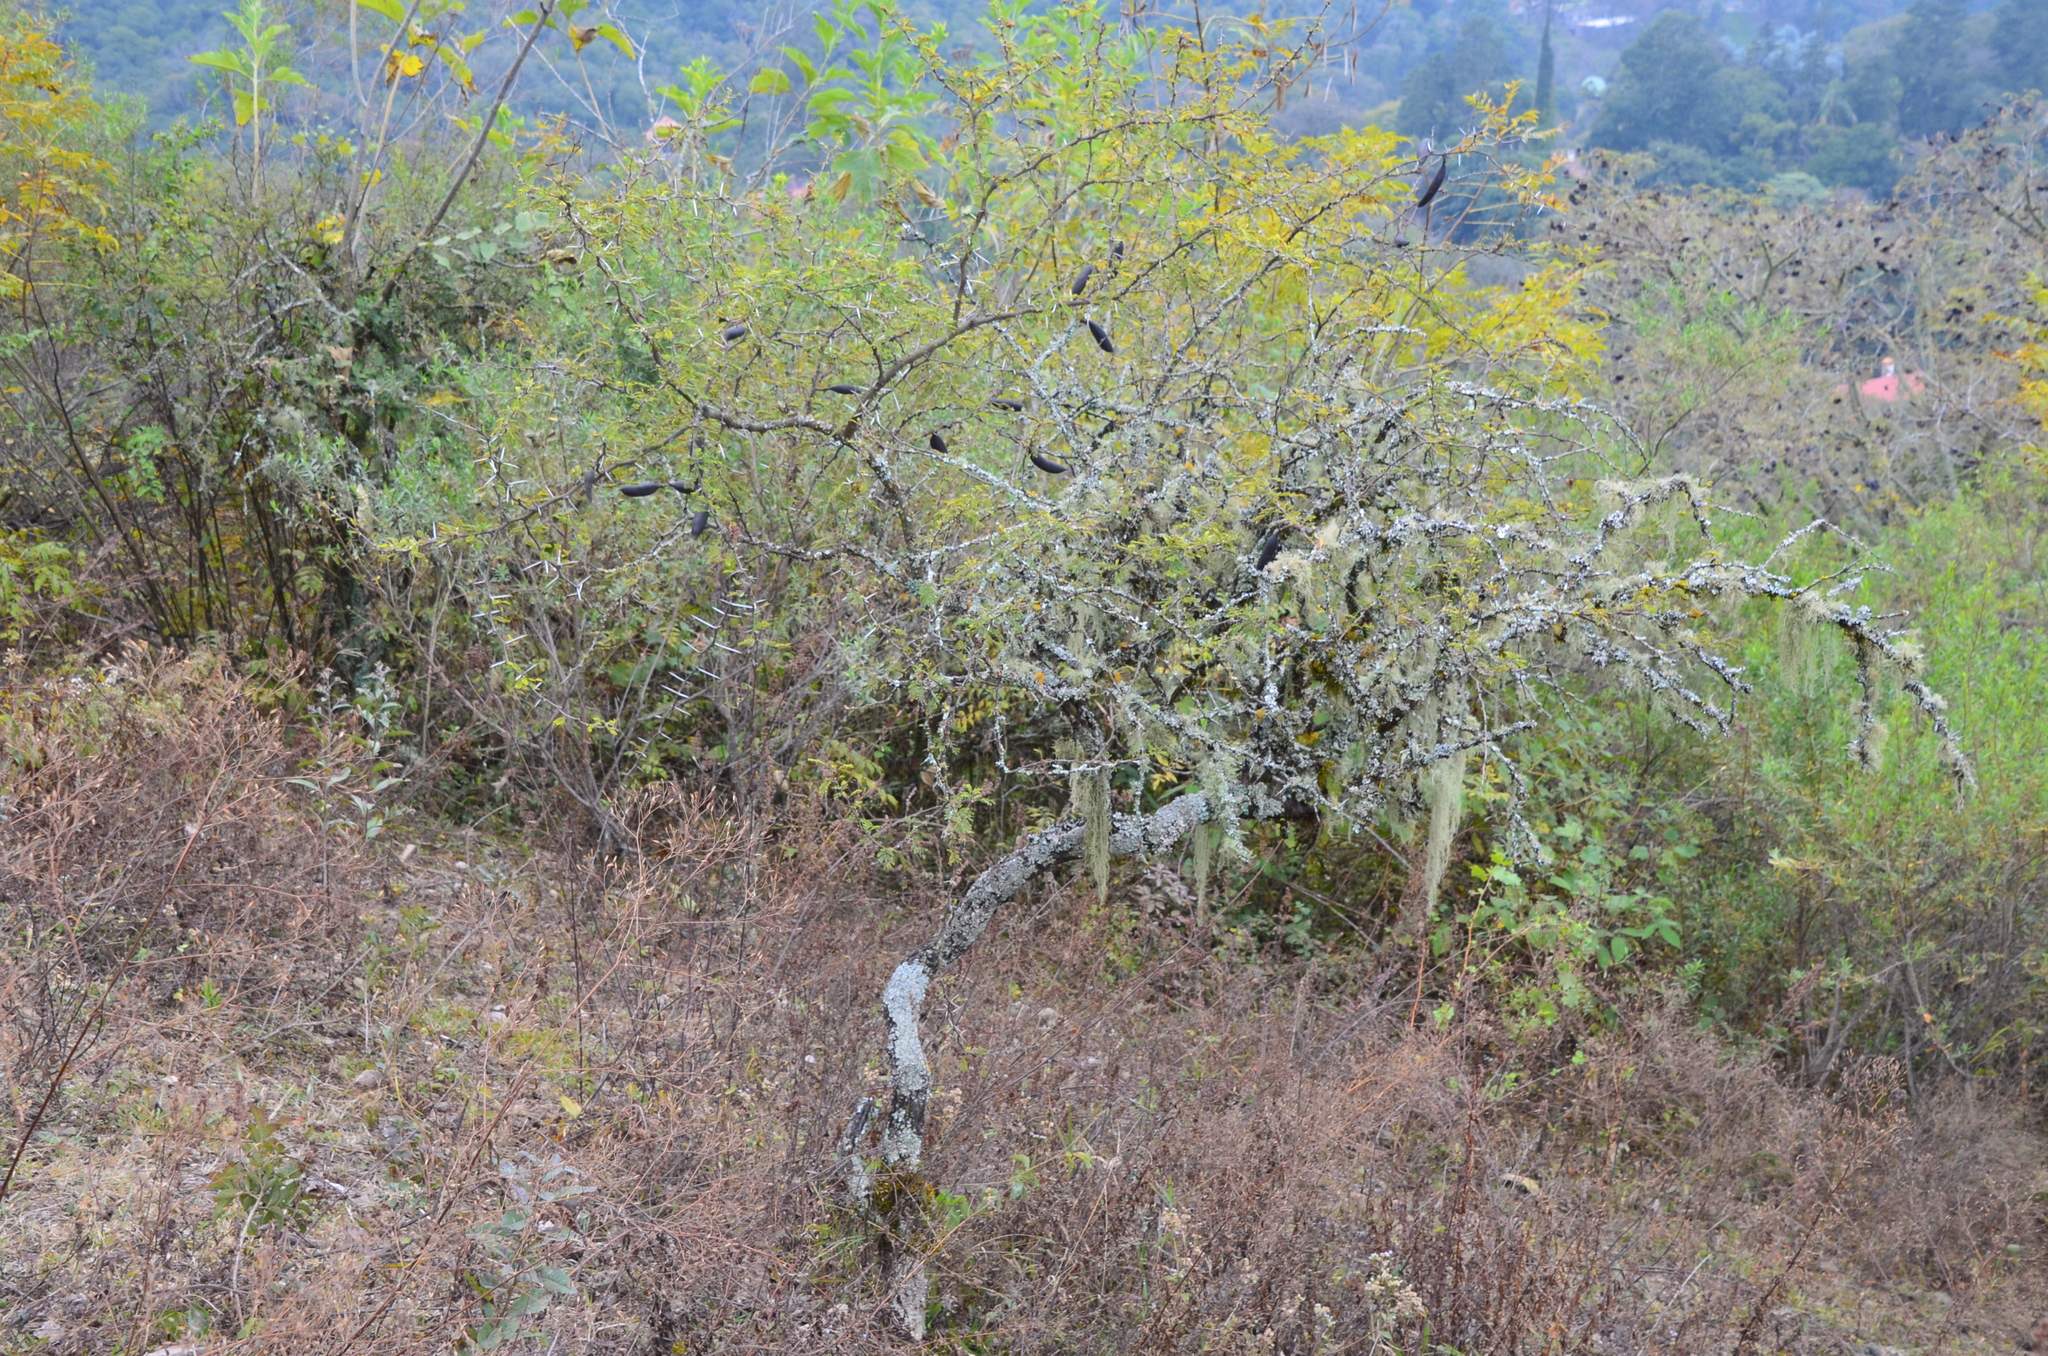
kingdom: Plantae
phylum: Tracheophyta
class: Magnoliopsida
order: Fabales
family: Fabaceae
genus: Vachellia
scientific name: Vachellia caven
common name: Roman cassie
